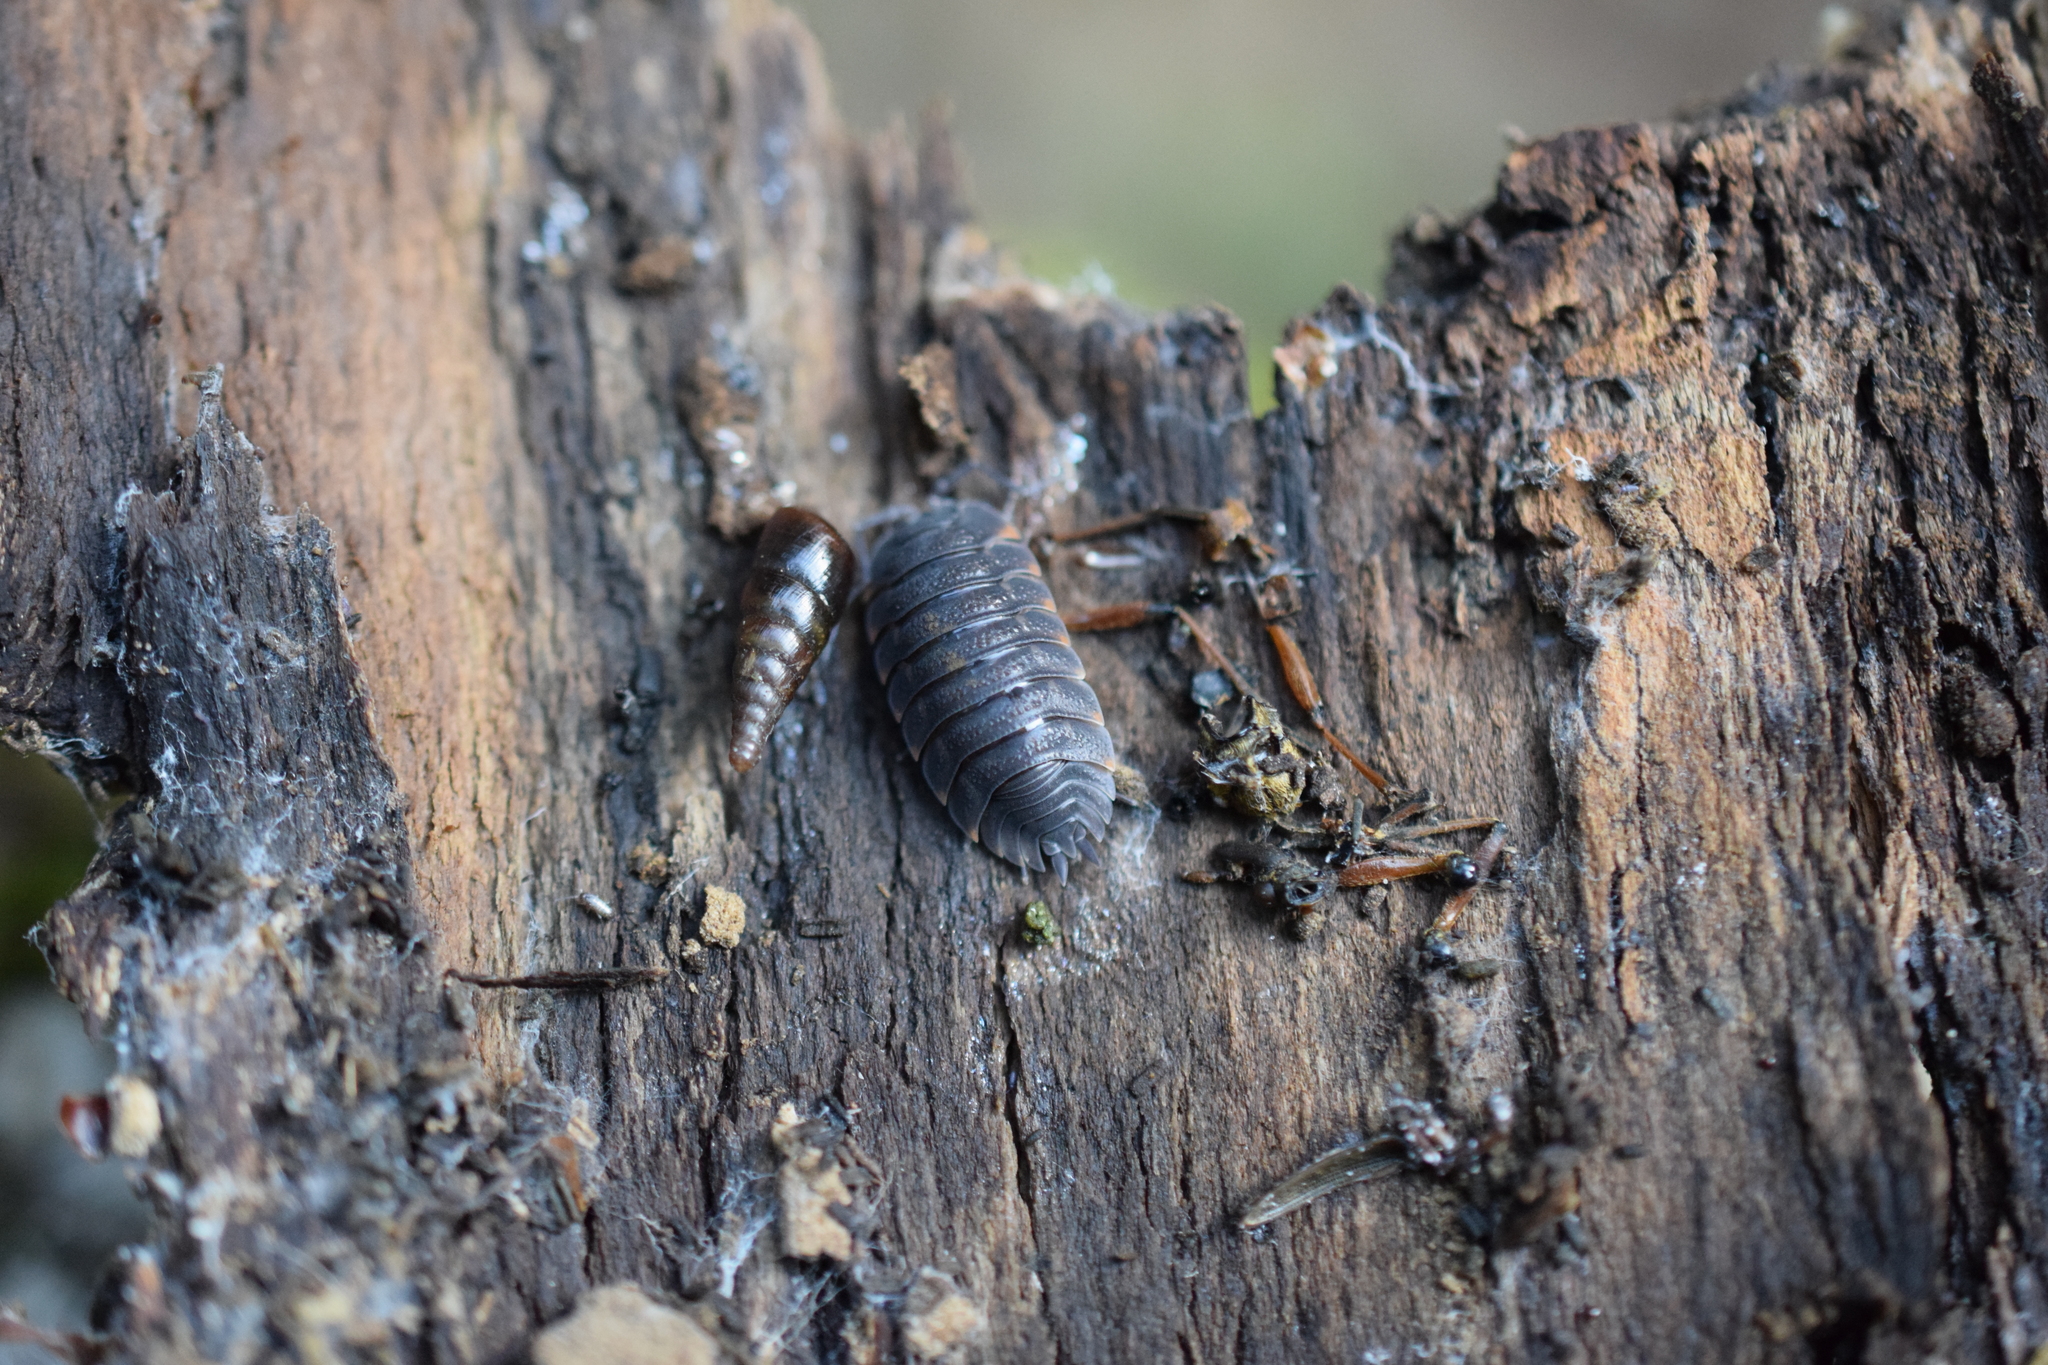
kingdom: Animalia
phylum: Arthropoda
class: Malacostraca
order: Isopoda
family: Trachelipodidae
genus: Trachelipus
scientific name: Trachelipus ratzeburgii
